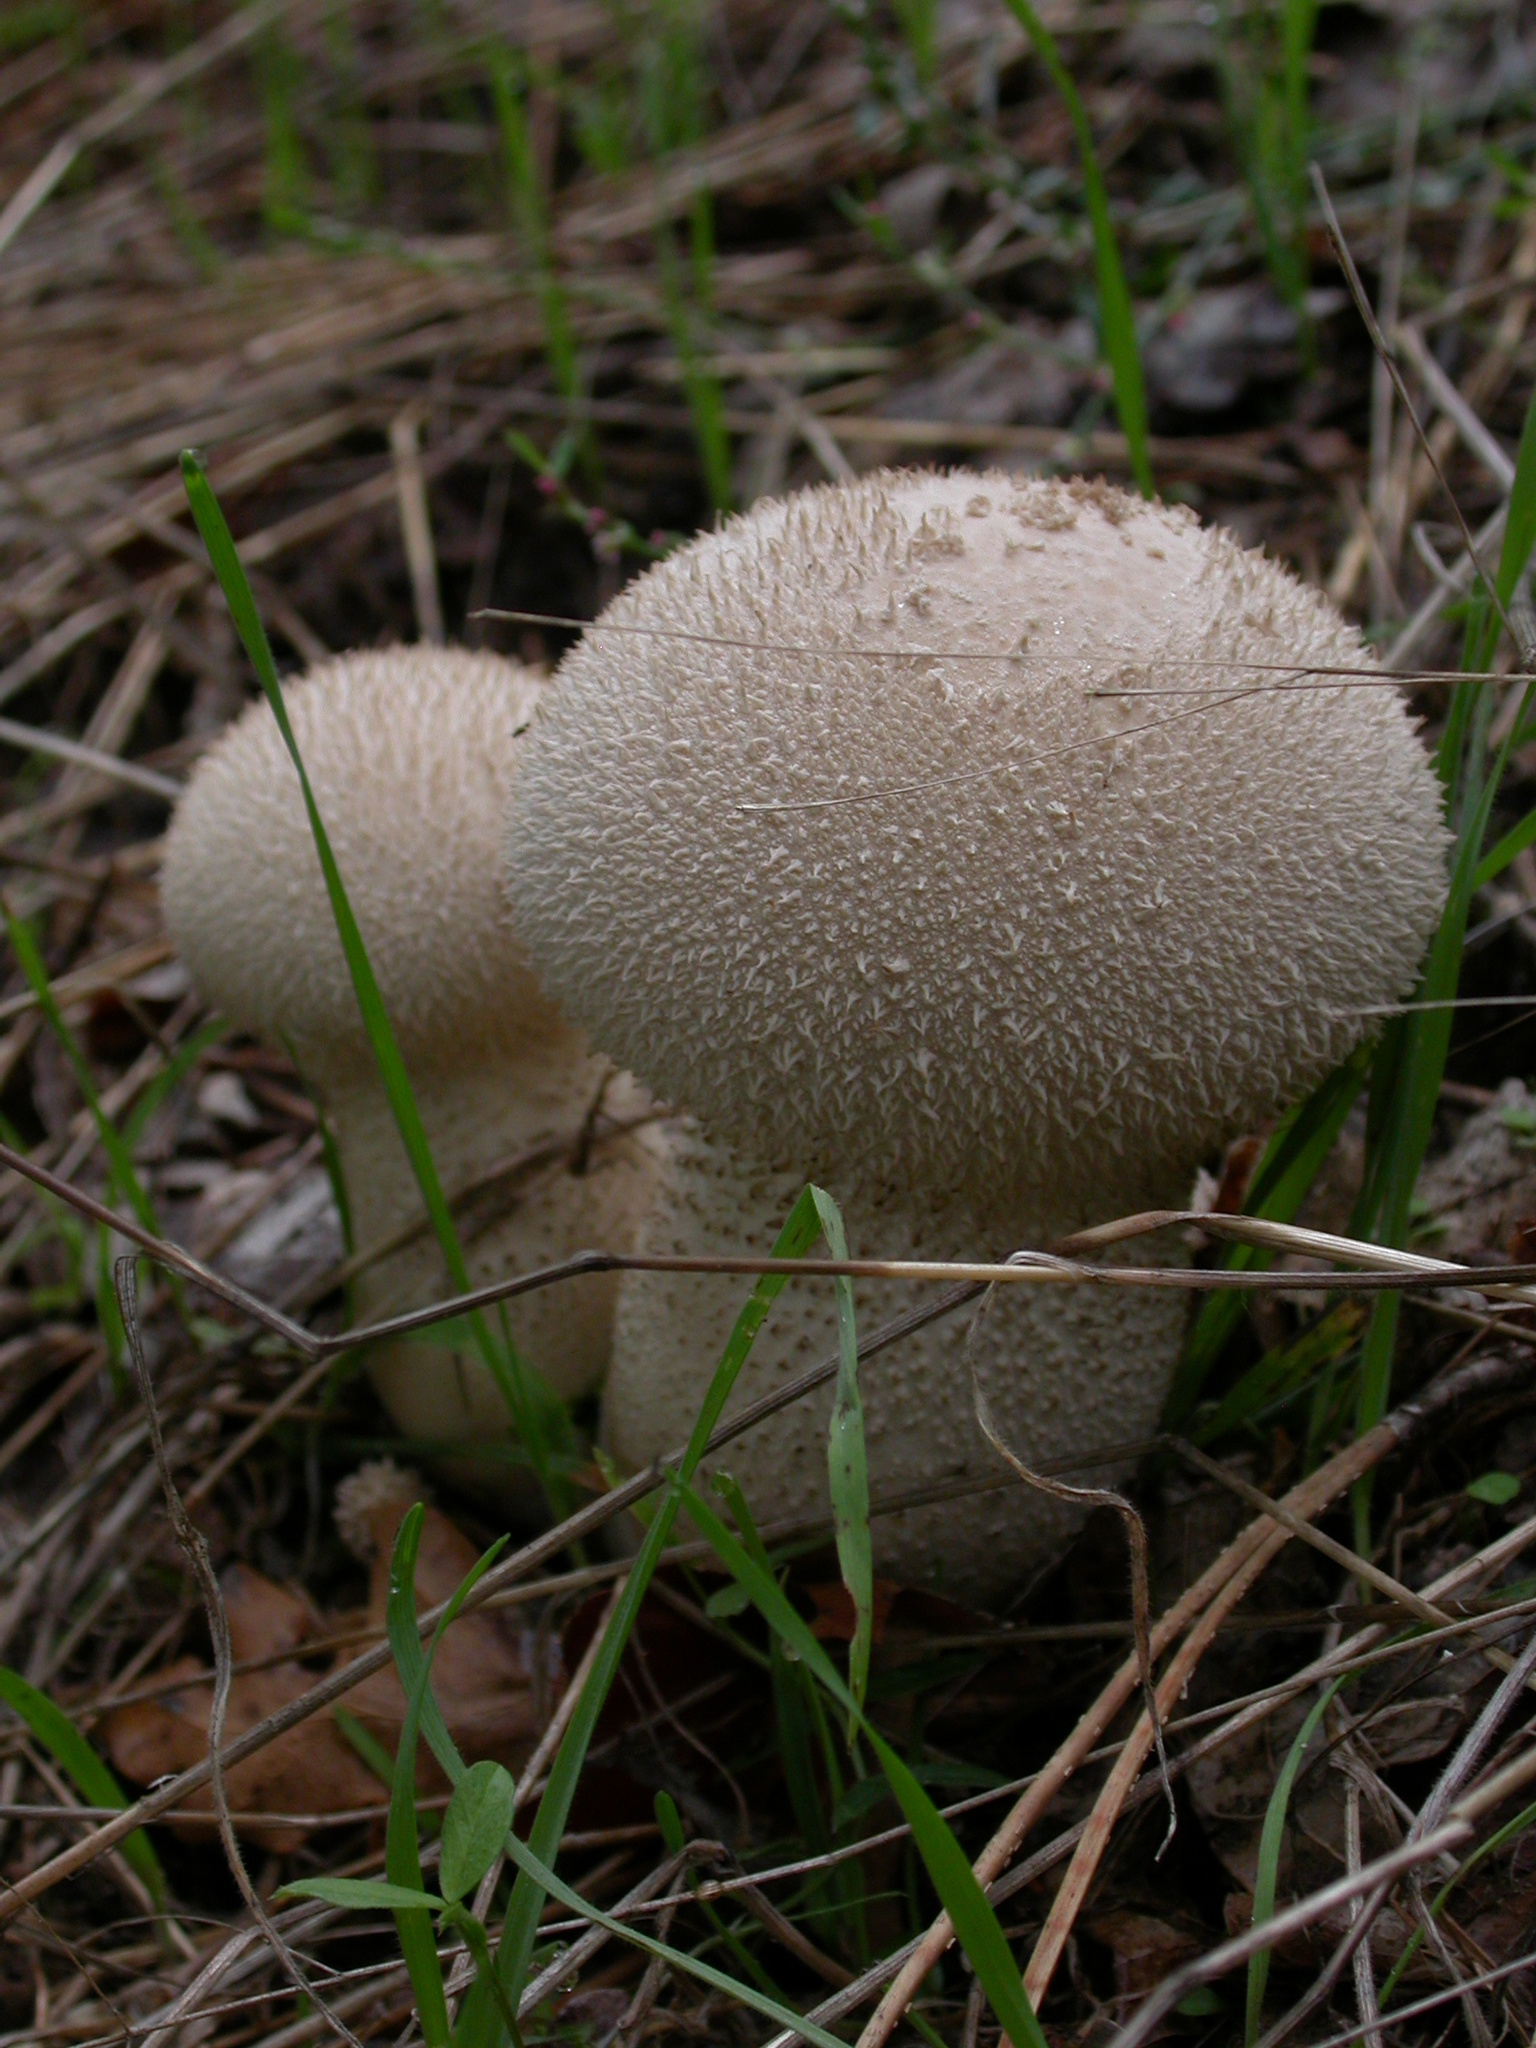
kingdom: Fungi
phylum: Basidiomycota
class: Agaricomycetes
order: Agaricales
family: Lycoperdaceae
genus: Lycoperdon
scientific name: Lycoperdon perlatum
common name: Common puffball
